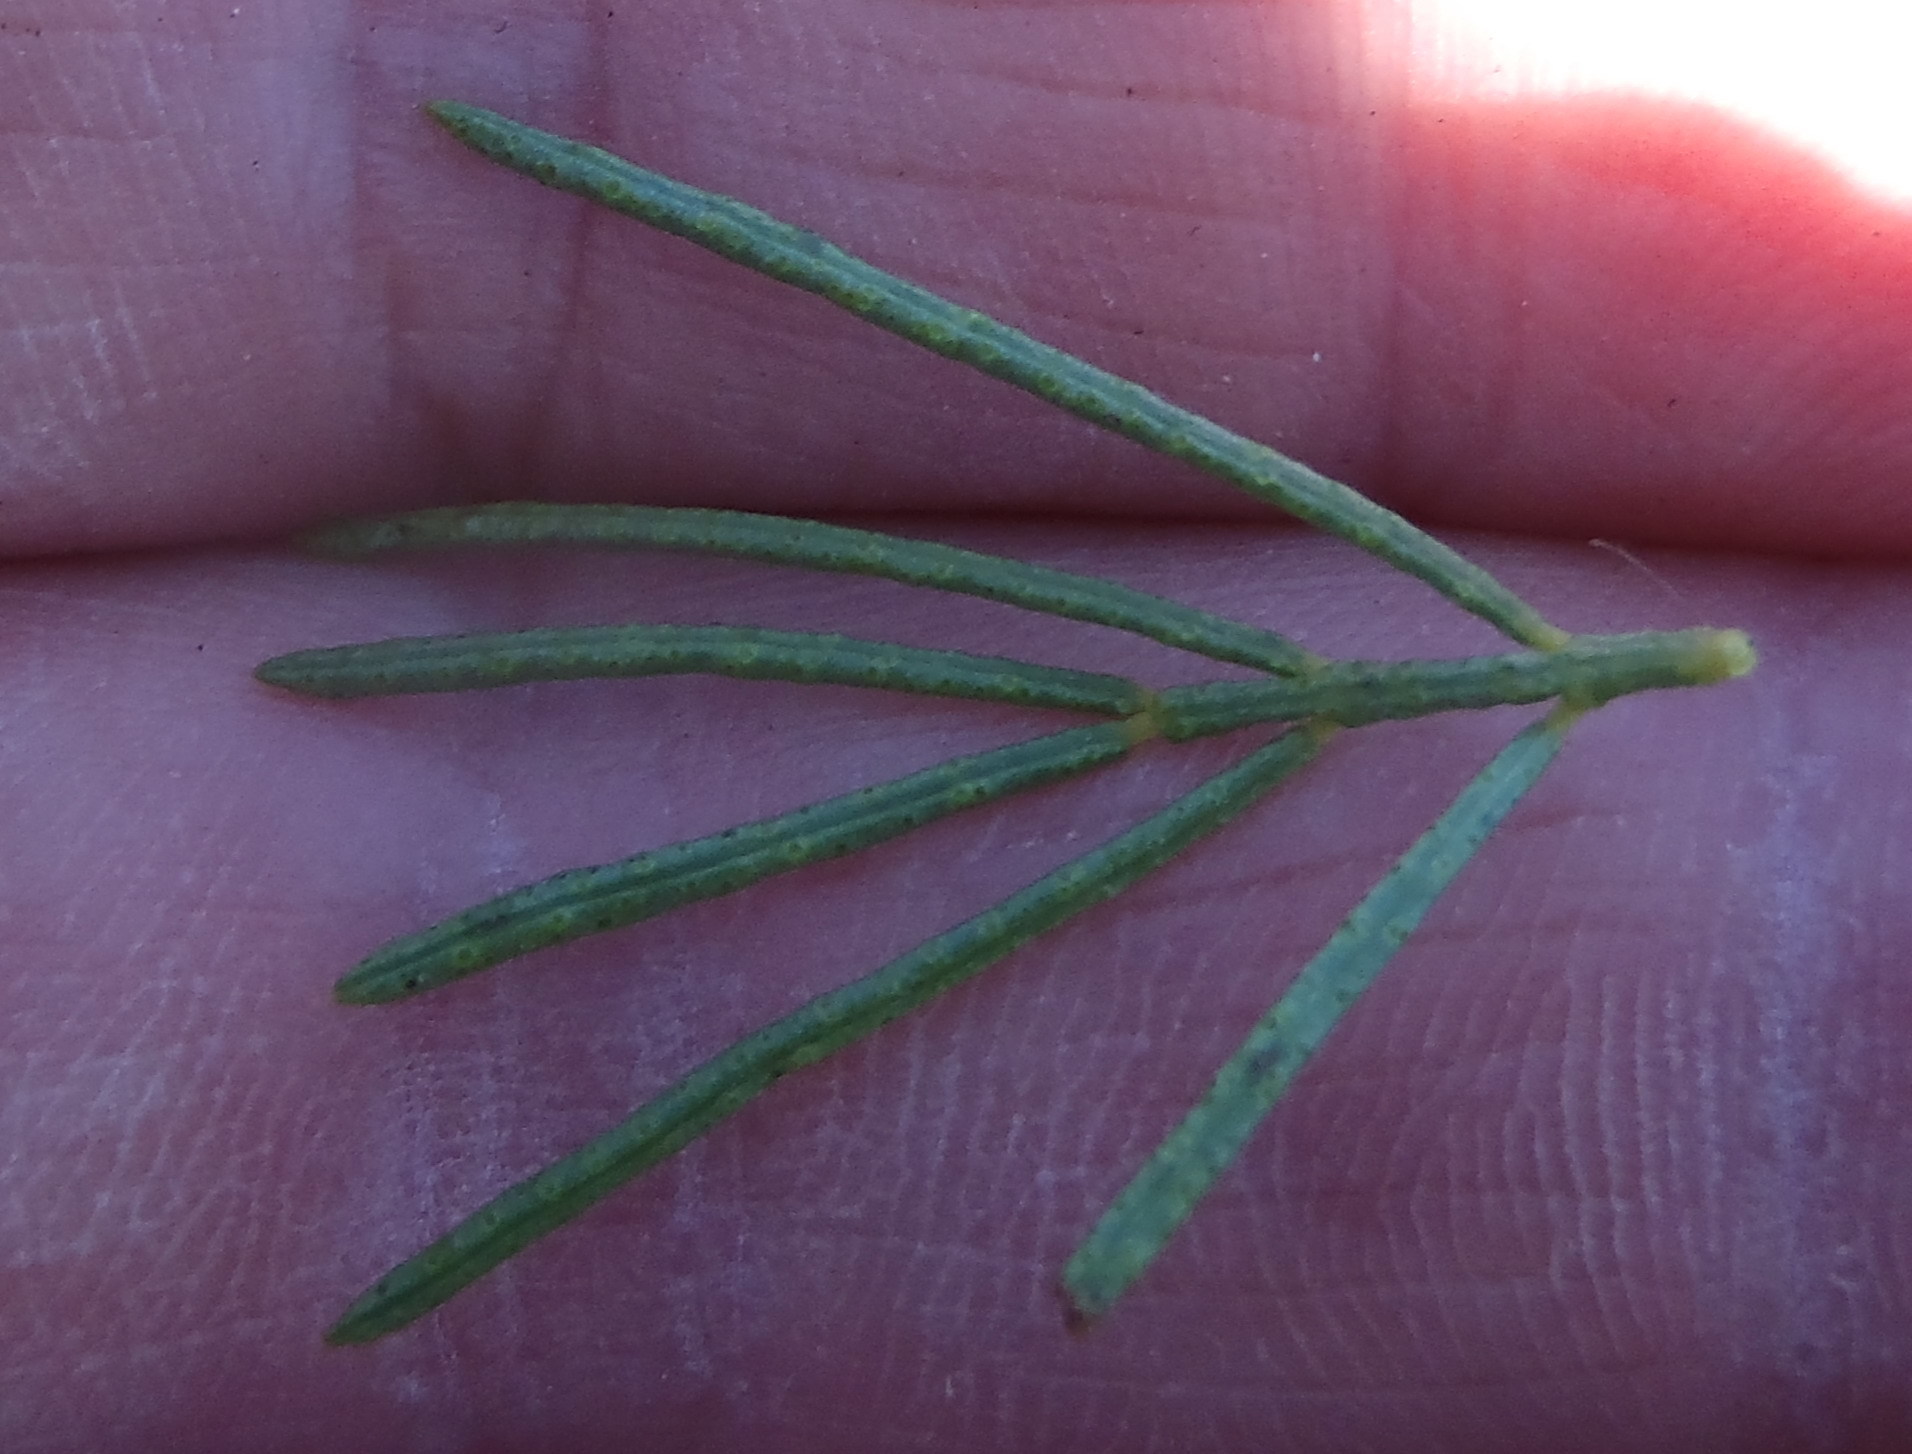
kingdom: Plantae
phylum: Tracheophyta
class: Magnoliopsida
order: Fabales
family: Fabaceae
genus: Psoralea
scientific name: Psoralea vanberkelae
